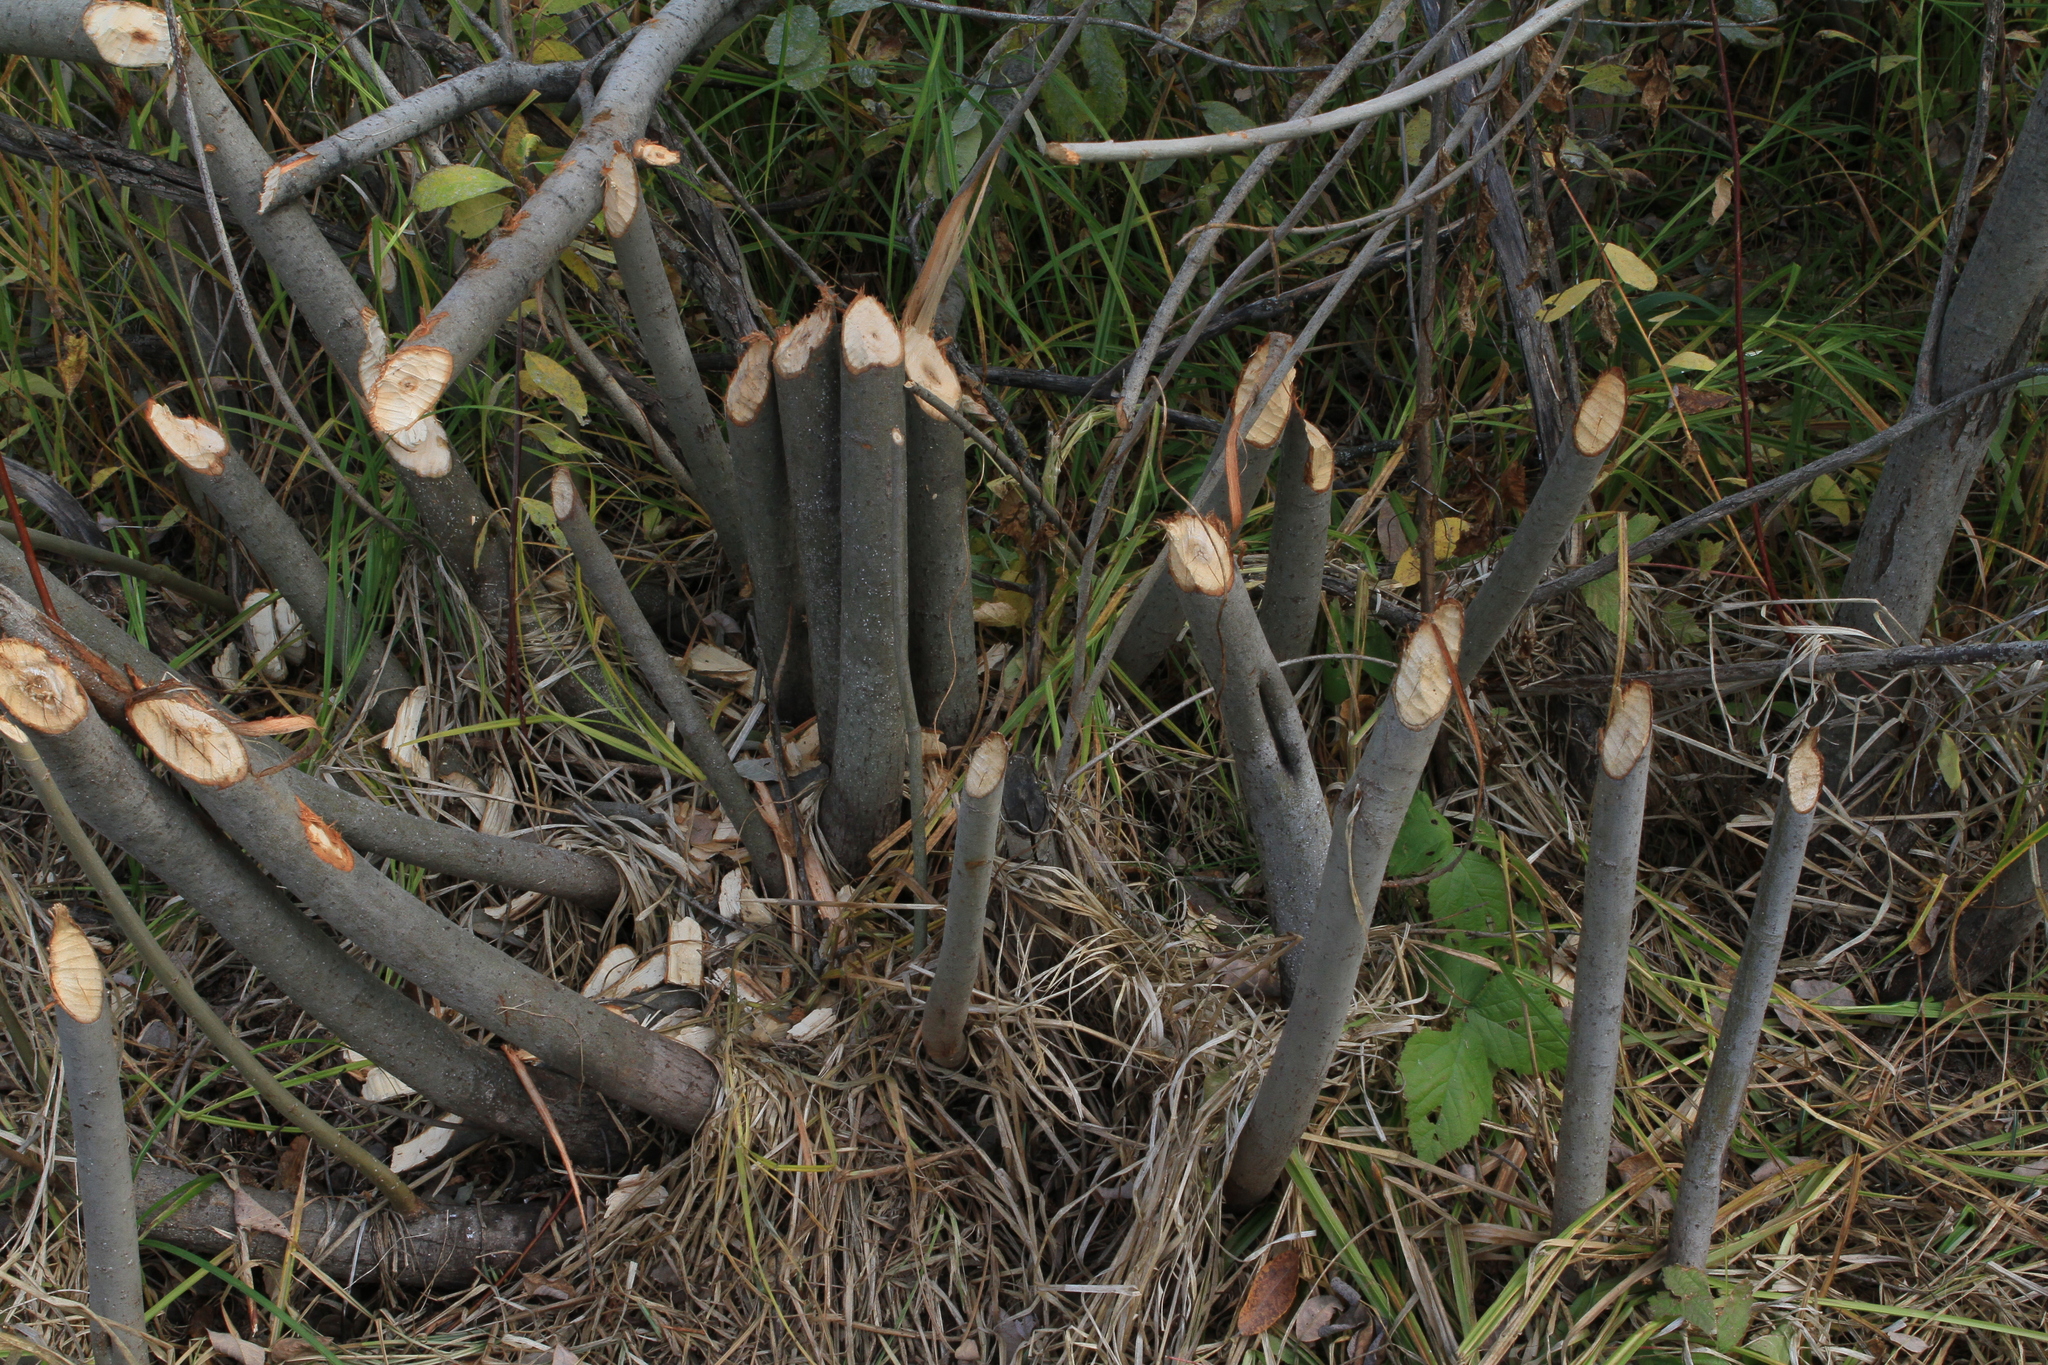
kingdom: Animalia
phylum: Chordata
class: Mammalia
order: Rodentia
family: Castoridae
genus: Castor
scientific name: Castor fiber
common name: Eurasian beaver
